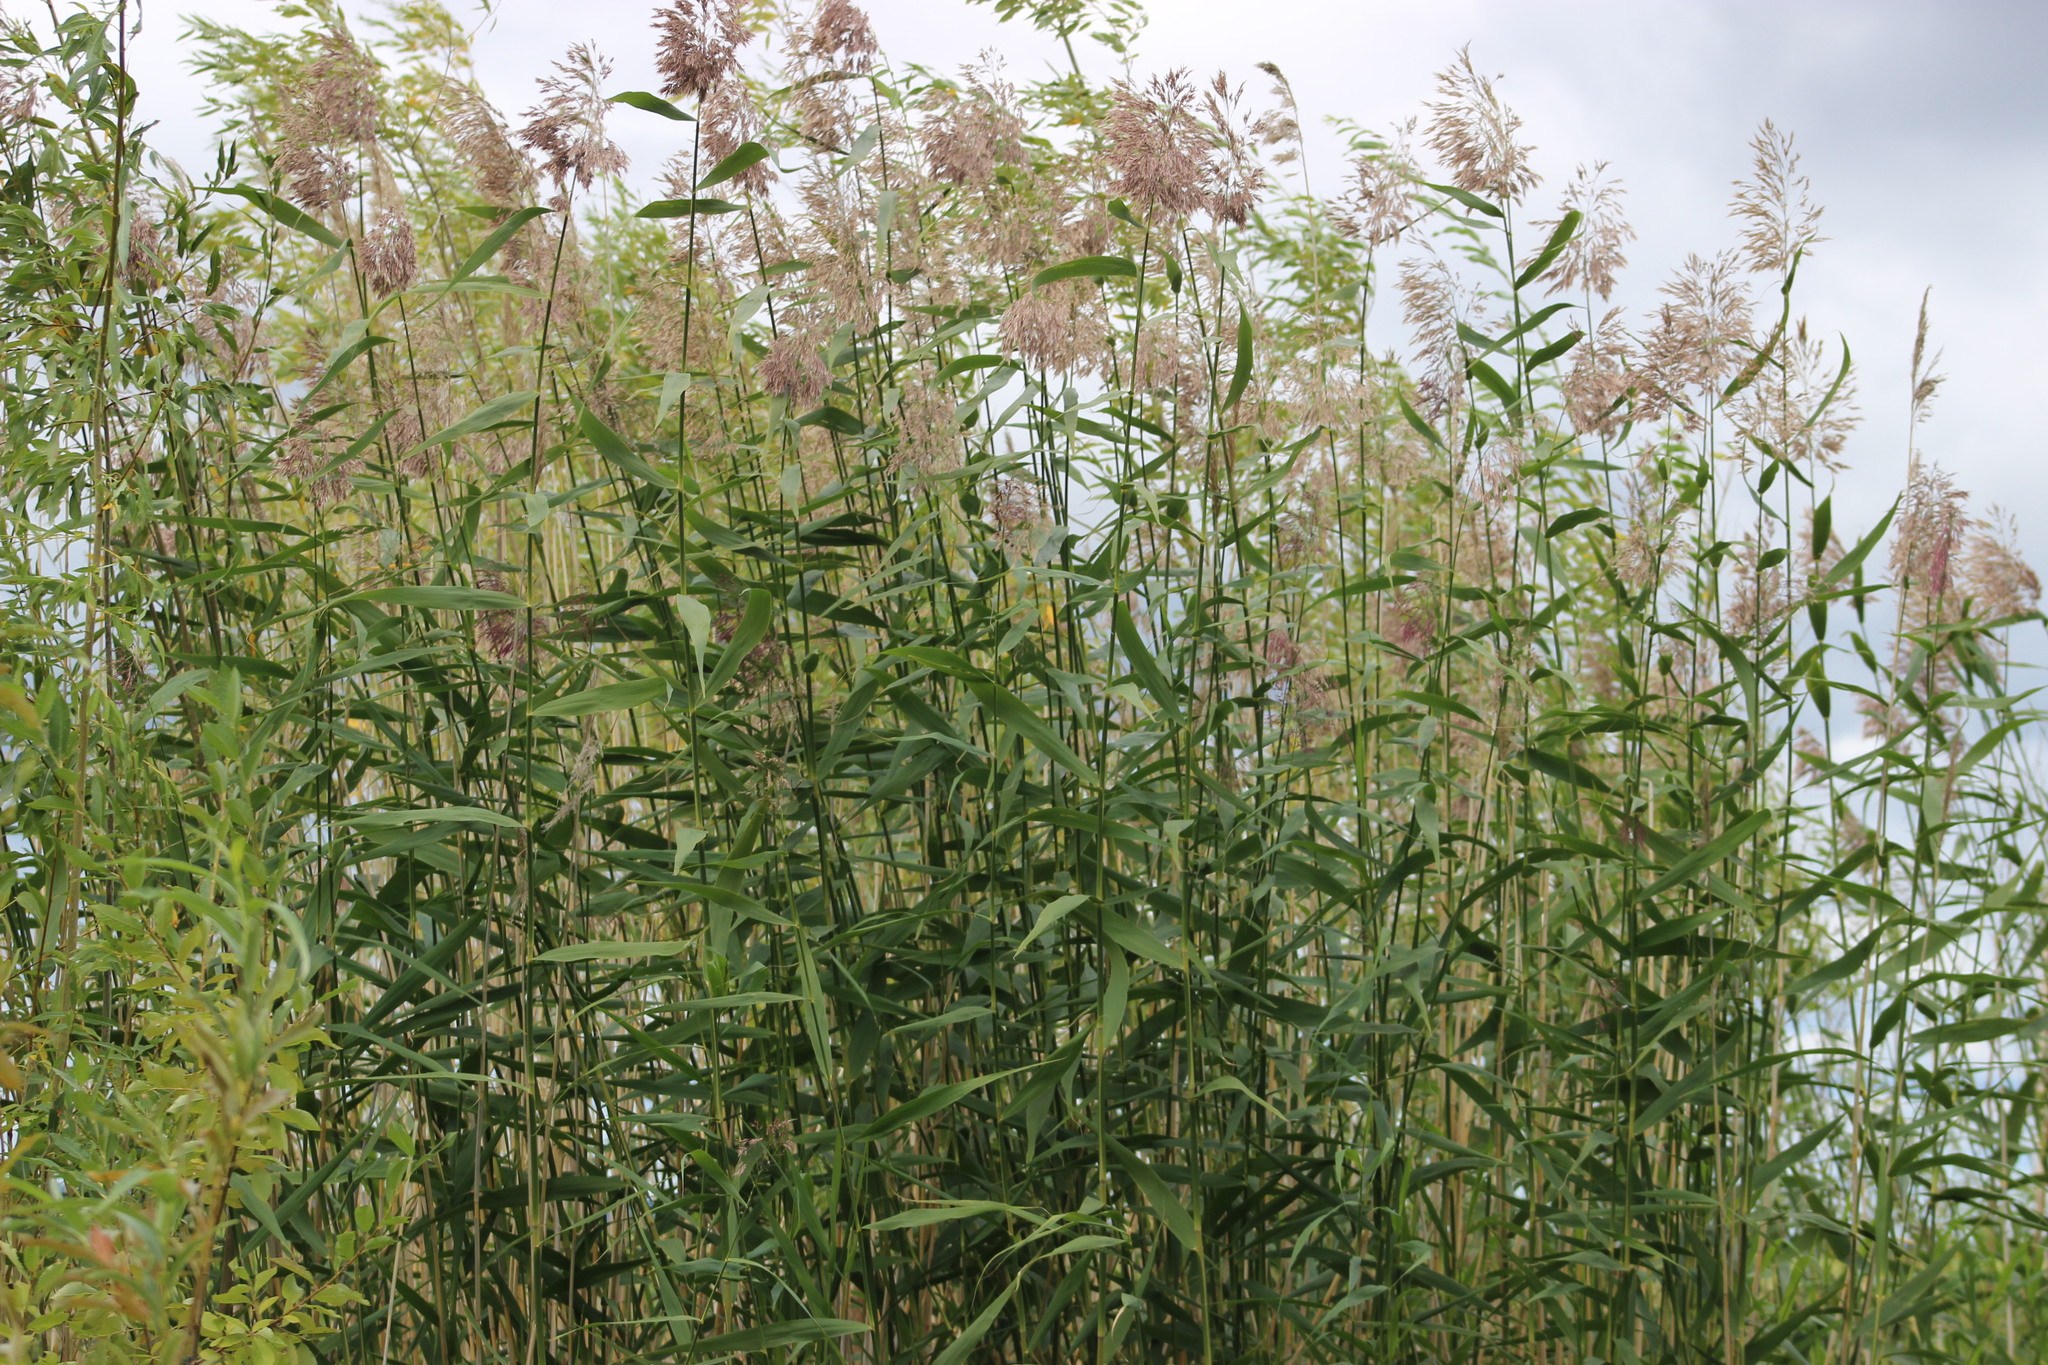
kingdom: Plantae
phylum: Tracheophyta
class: Liliopsida
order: Poales
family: Poaceae
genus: Phragmites
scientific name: Phragmites australis
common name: Common reed
